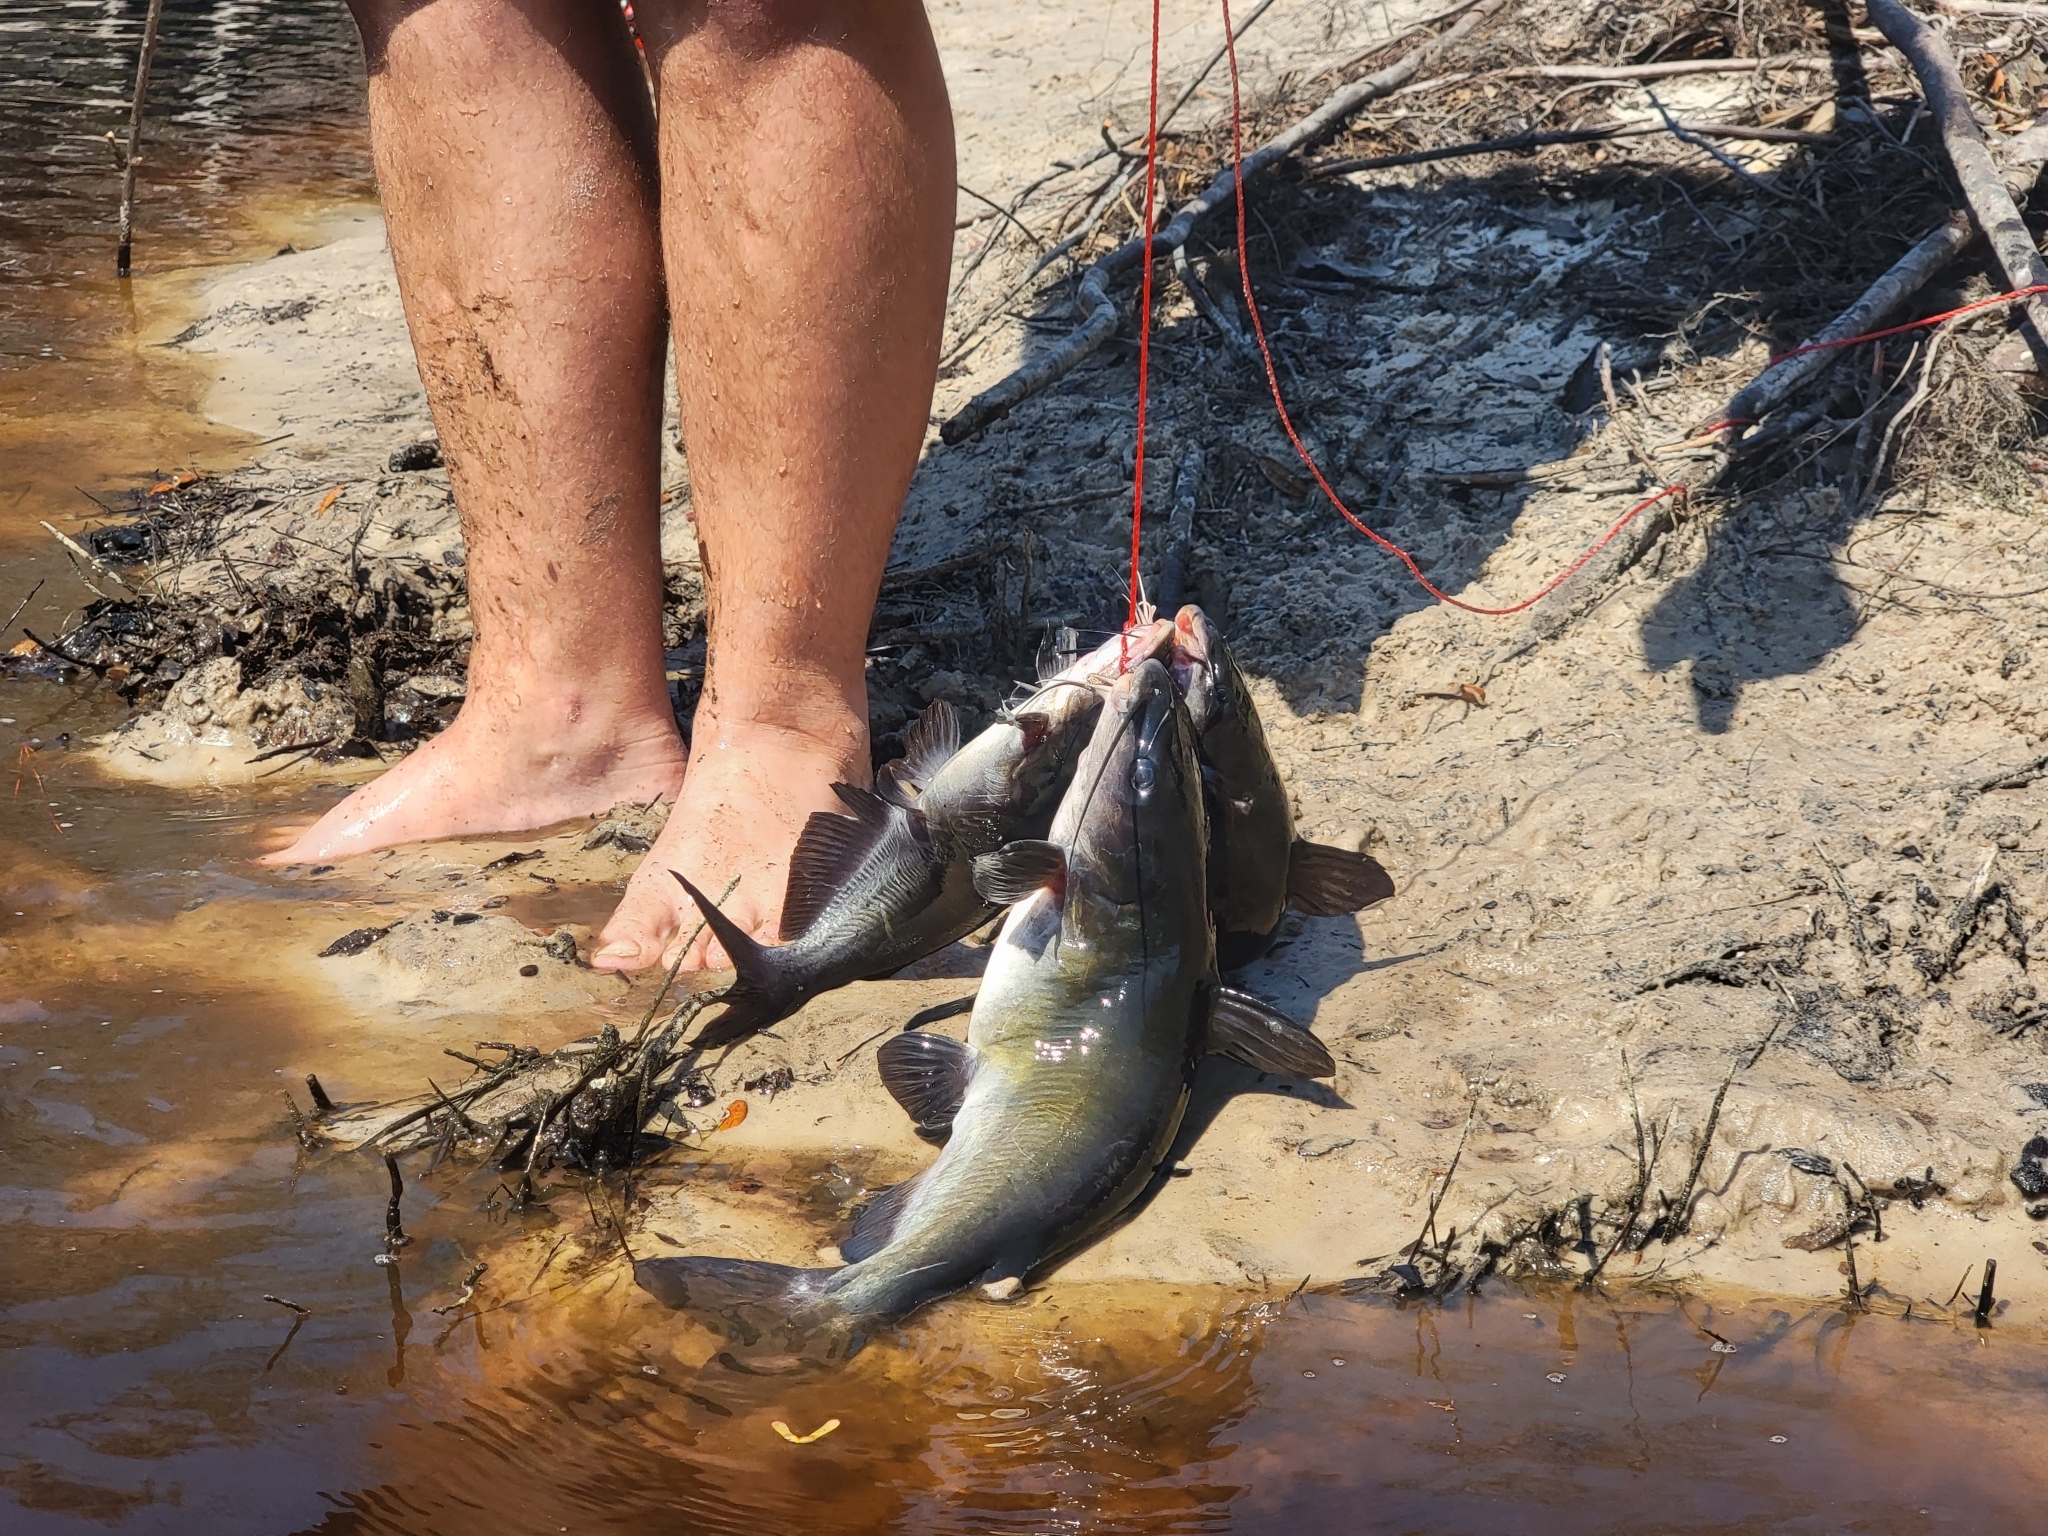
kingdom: Animalia
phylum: Chordata
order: Siluriformes
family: Ictaluridae
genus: Ictalurus
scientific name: Ictalurus punctatus
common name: Channel catfish
